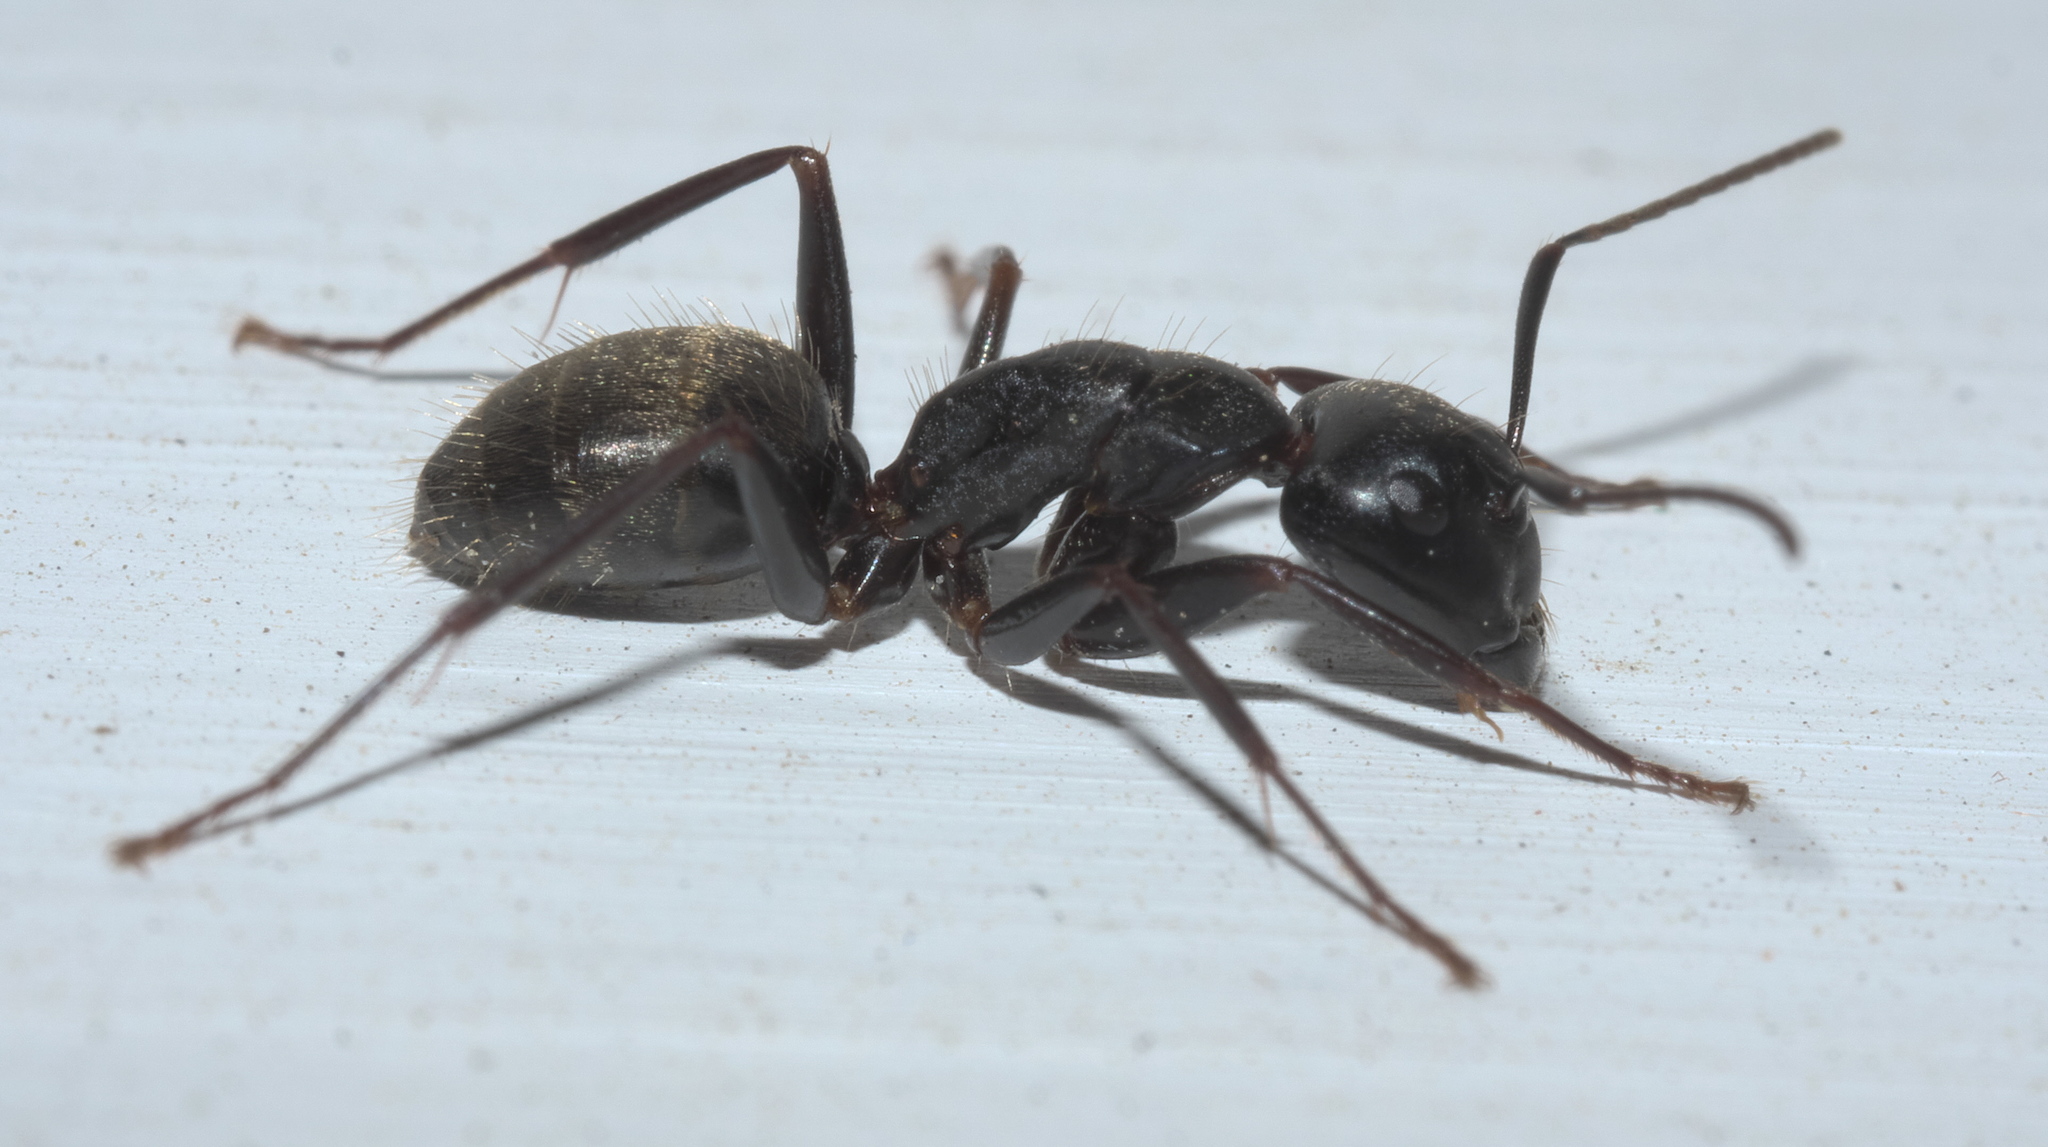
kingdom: Animalia
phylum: Arthropoda
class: Insecta
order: Hymenoptera
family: Formicidae
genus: Camponotus
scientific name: Camponotus pennsylvanicus
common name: Black carpenter ant
